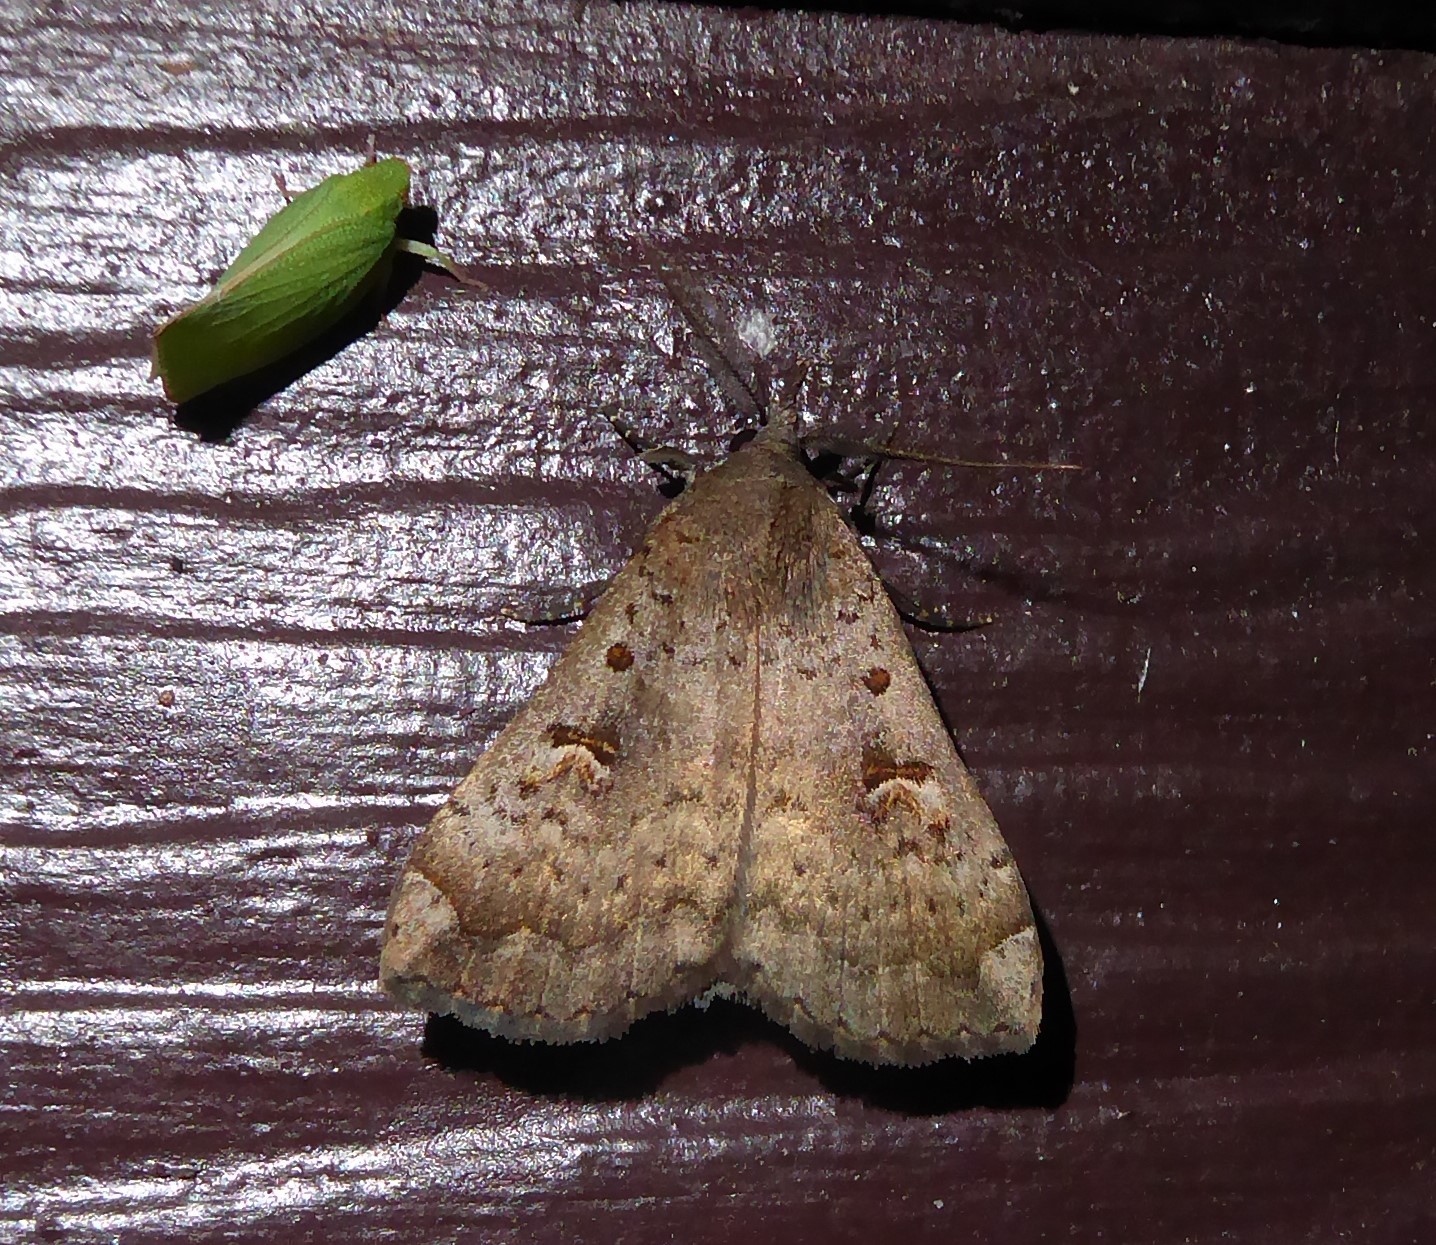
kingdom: Animalia
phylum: Arthropoda
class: Insecta
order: Lepidoptera
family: Erebidae
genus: Rhapsa
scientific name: Rhapsa scotosialis
